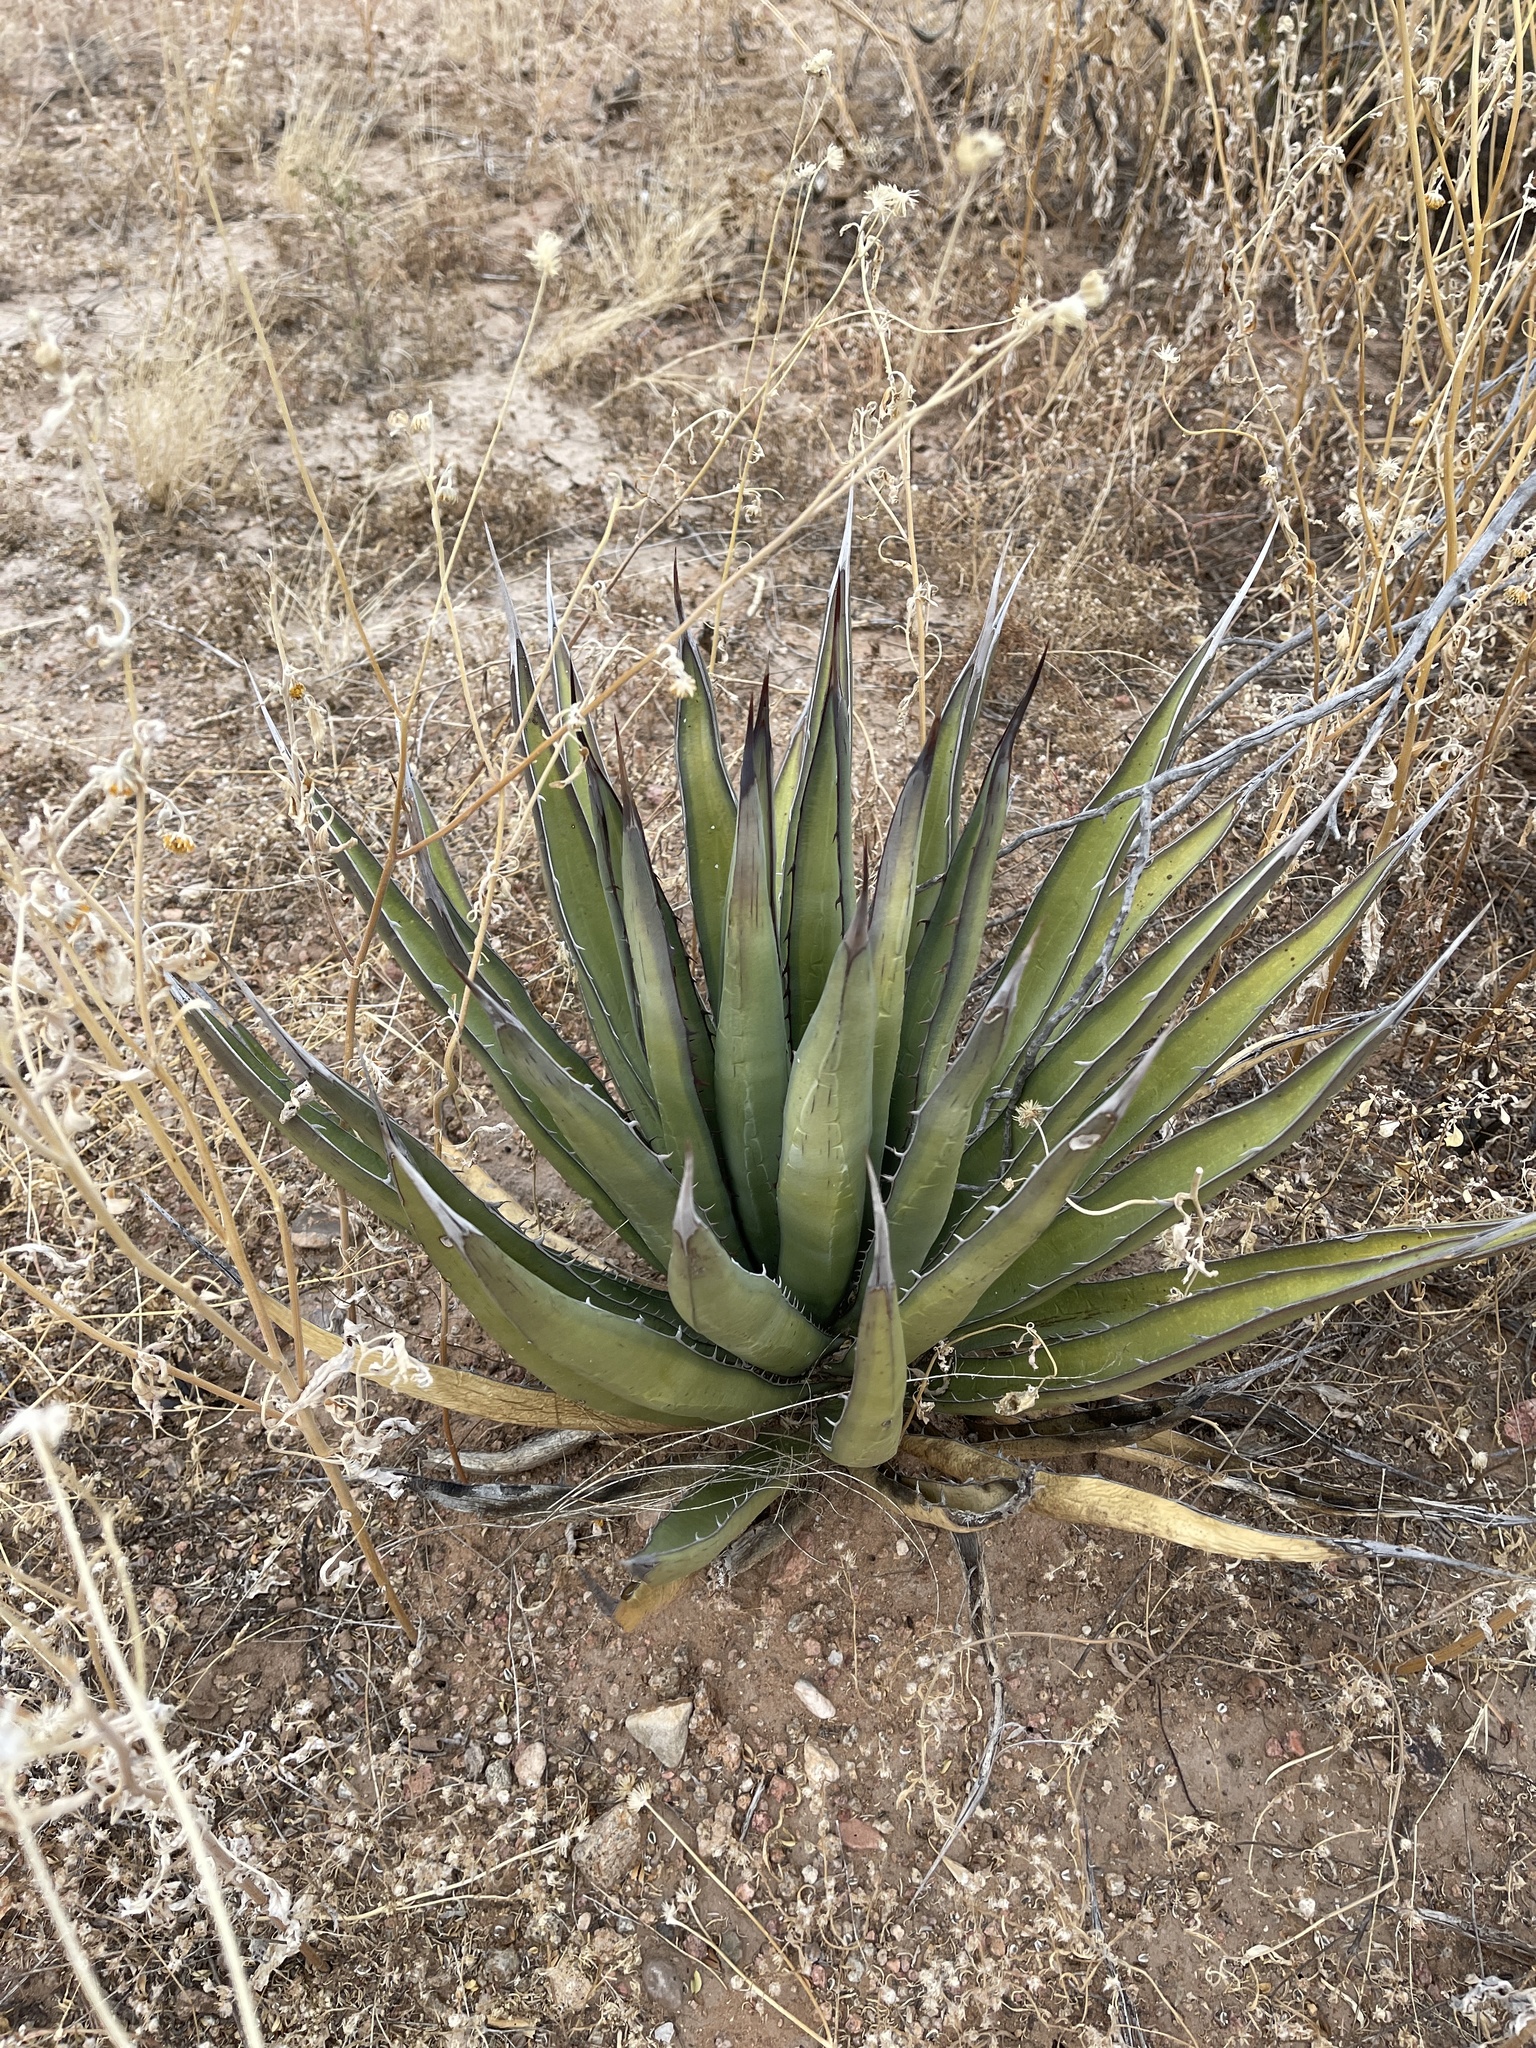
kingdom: Plantae
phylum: Tracheophyta
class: Liliopsida
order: Asparagales
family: Asparagaceae
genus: Agave
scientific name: Agave lechuguilla
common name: Lecheguilla agave
